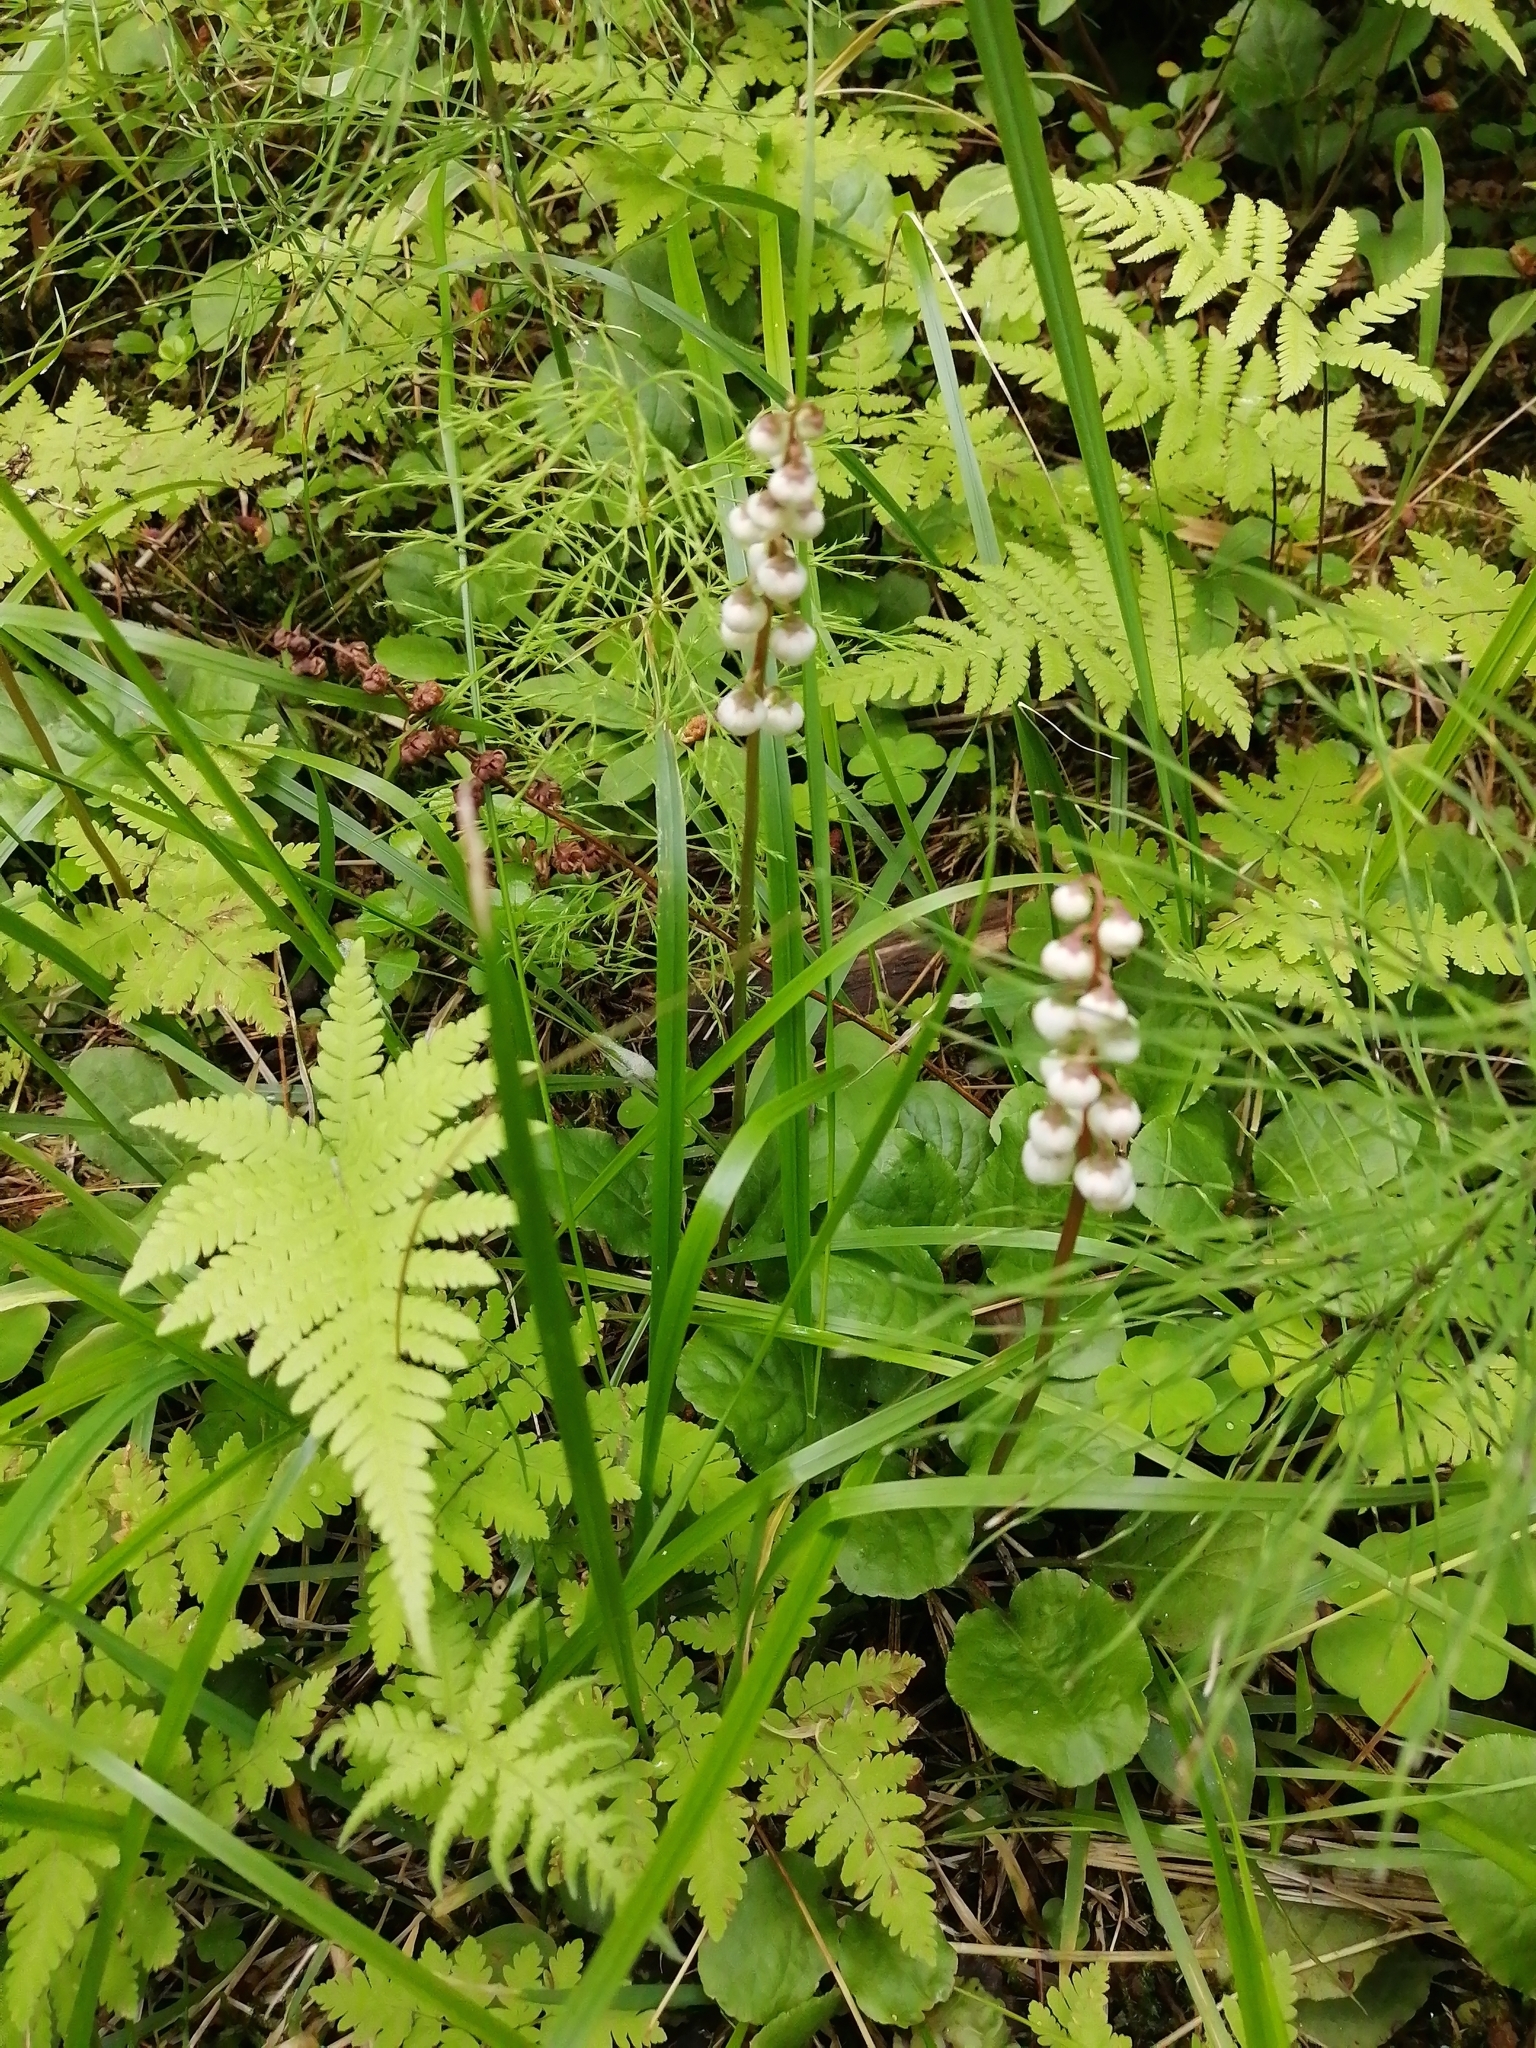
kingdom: Plantae
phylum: Tracheophyta
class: Magnoliopsida
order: Ericales
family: Ericaceae
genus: Pyrola
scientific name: Pyrola minor
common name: Common wintergreen
